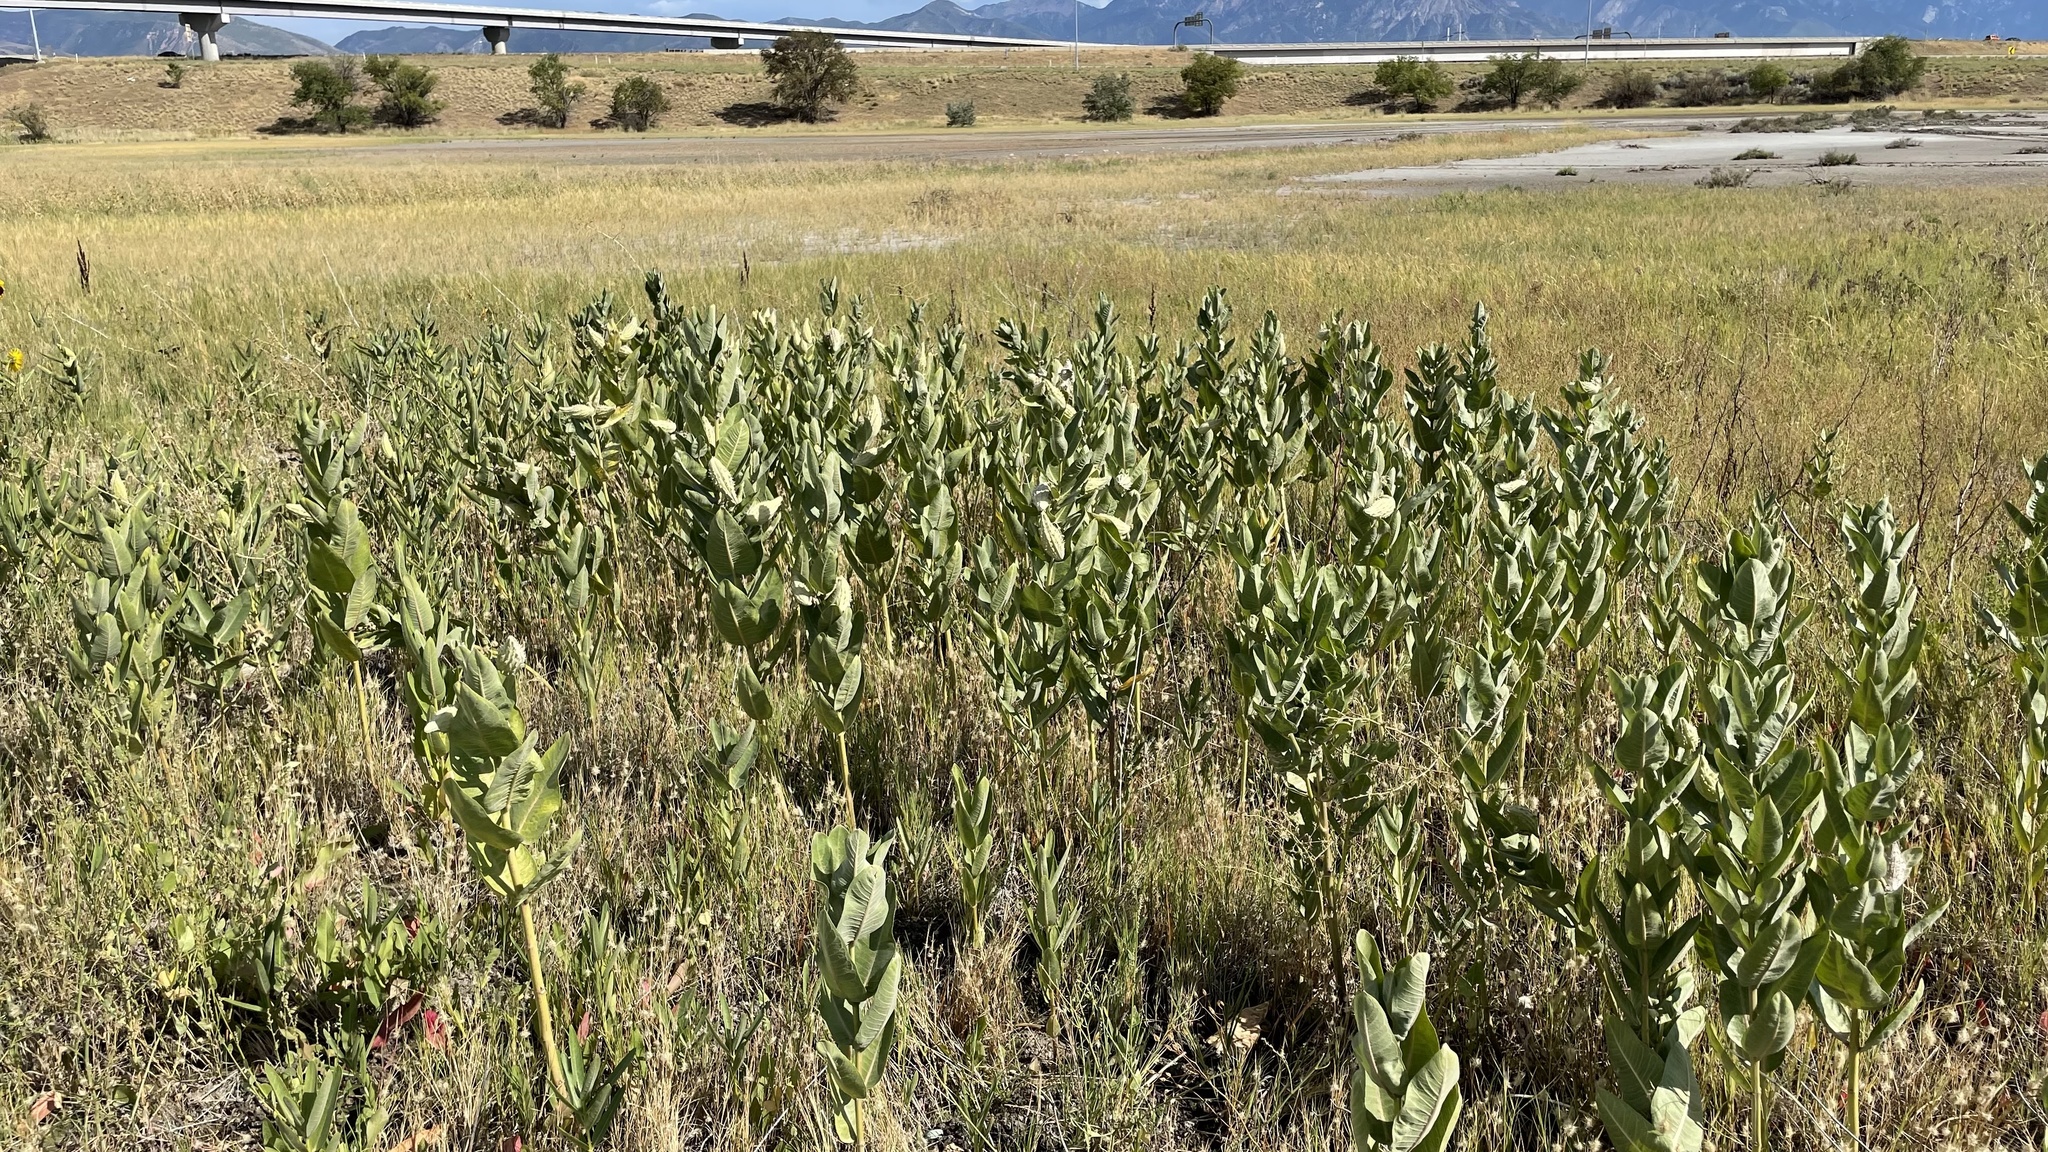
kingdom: Plantae
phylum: Tracheophyta
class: Magnoliopsida
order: Gentianales
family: Apocynaceae
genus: Asclepias
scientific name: Asclepias speciosa
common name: Showy milkweed
